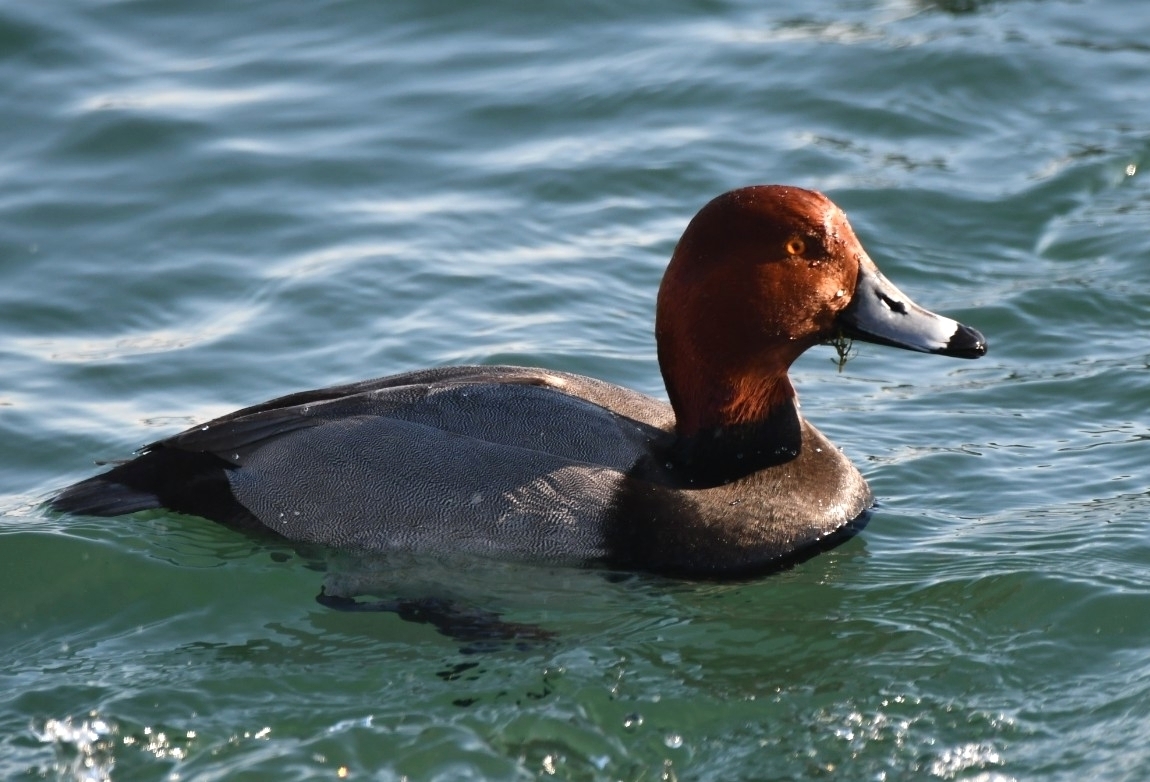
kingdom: Animalia
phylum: Chordata
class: Aves
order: Anseriformes
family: Anatidae
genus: Aythya
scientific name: Aythya americana
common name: Redhead
